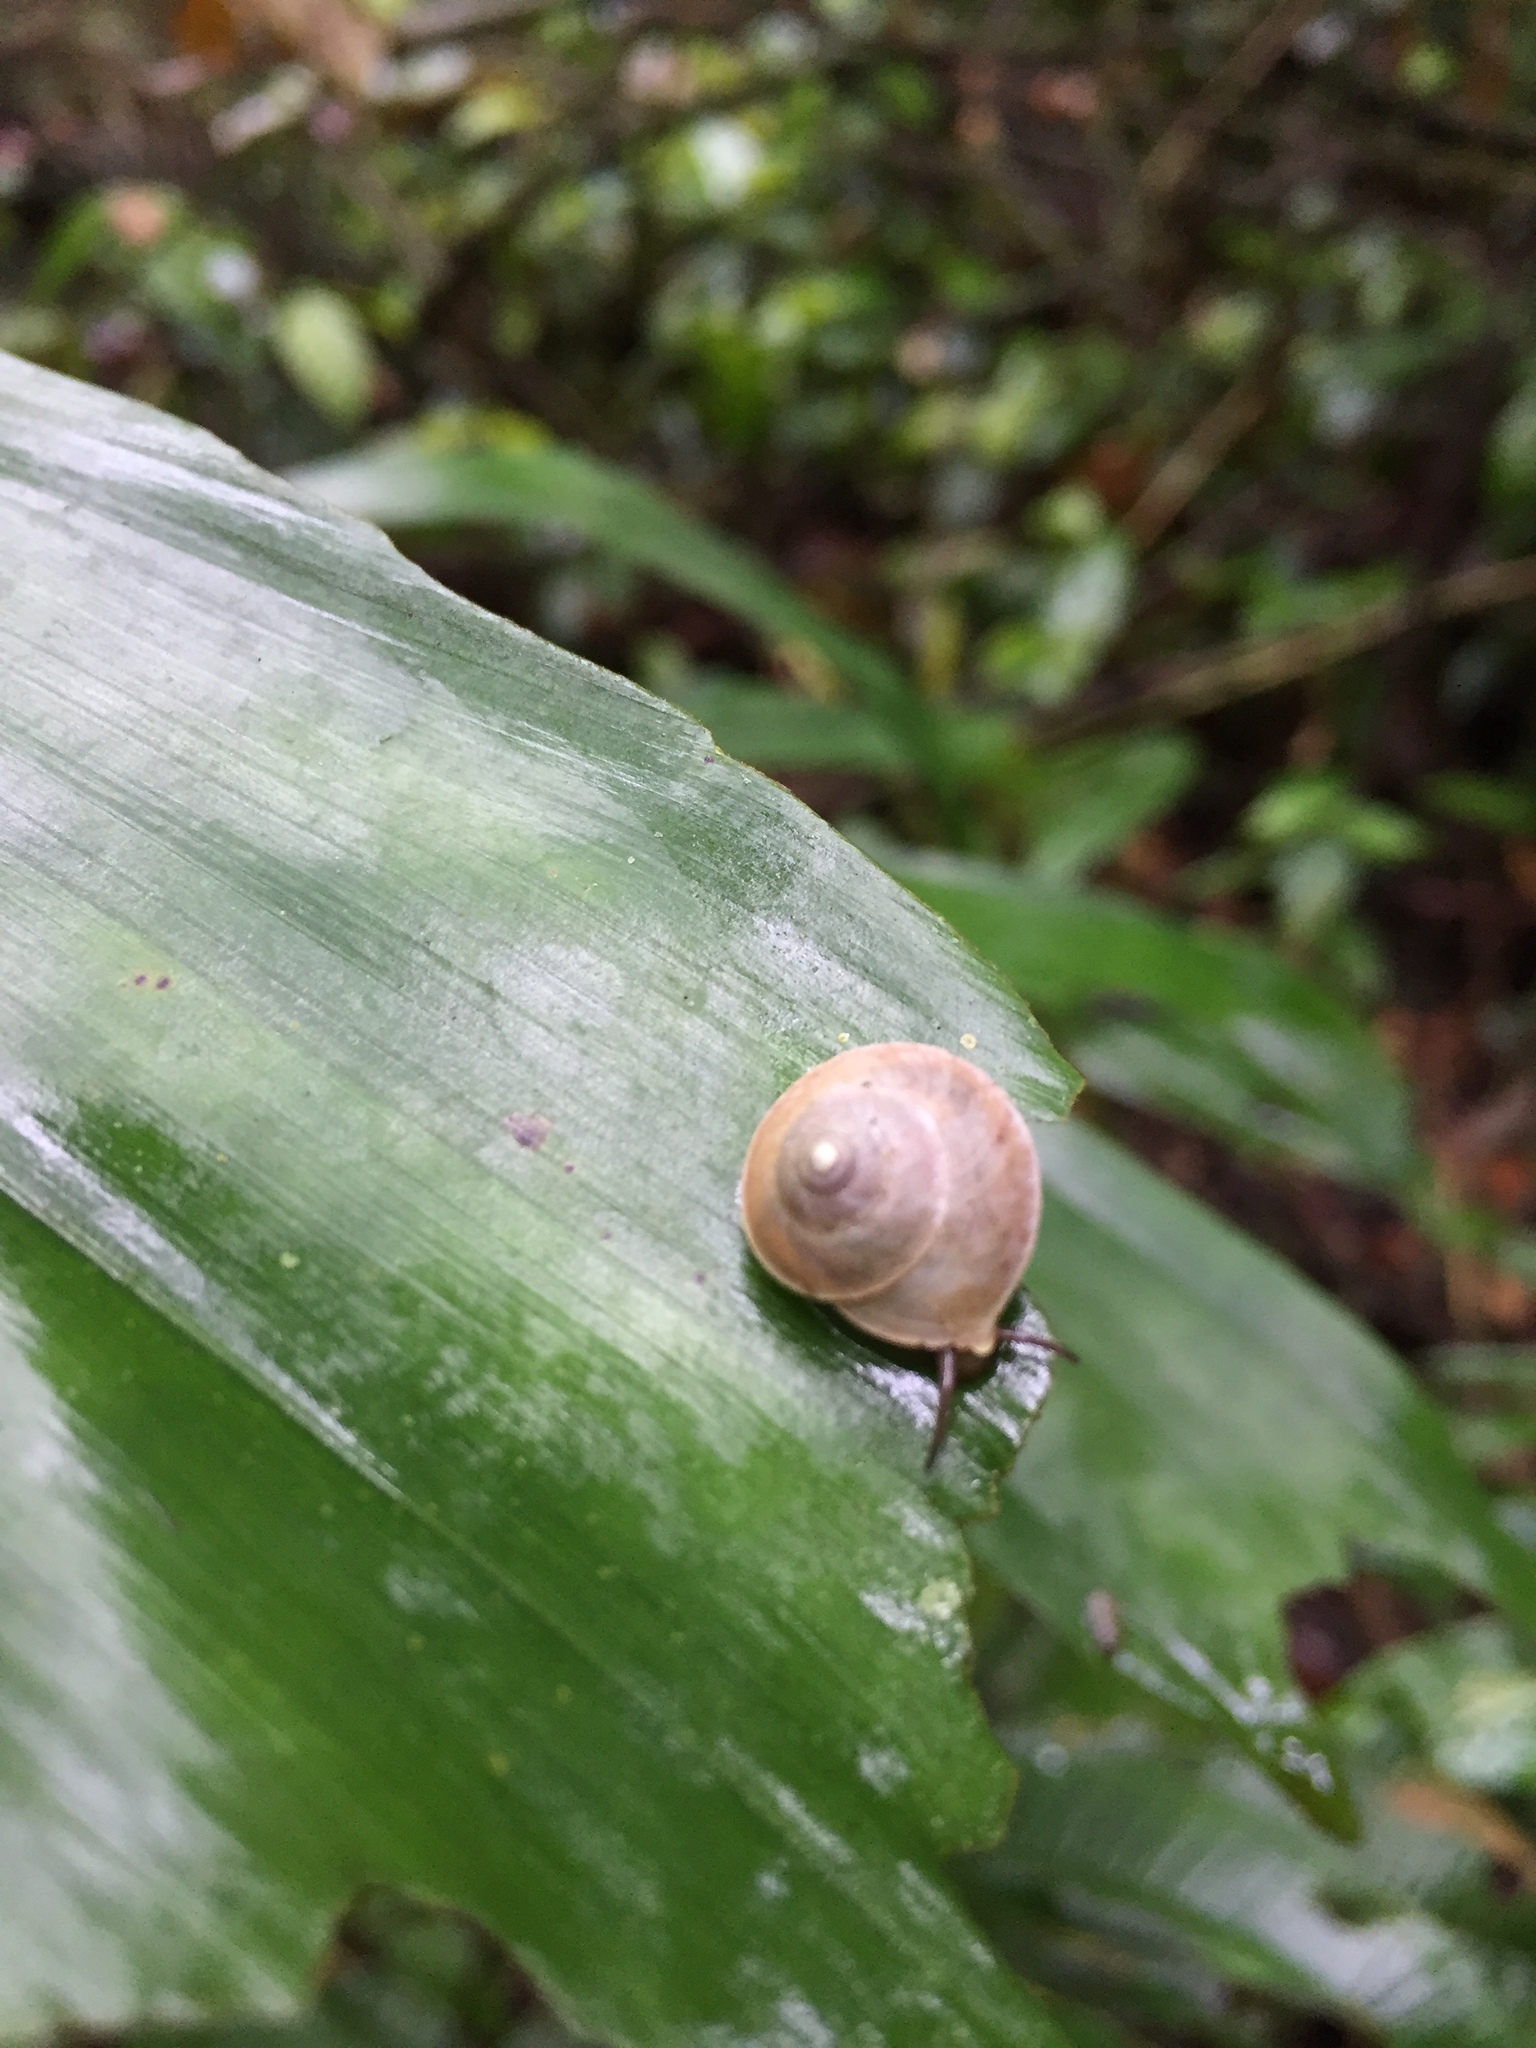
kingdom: Animalia
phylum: Mollusca
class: Gastropoda
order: Cycloneritida
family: Helicinidae
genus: Helicina
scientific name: Helicina
